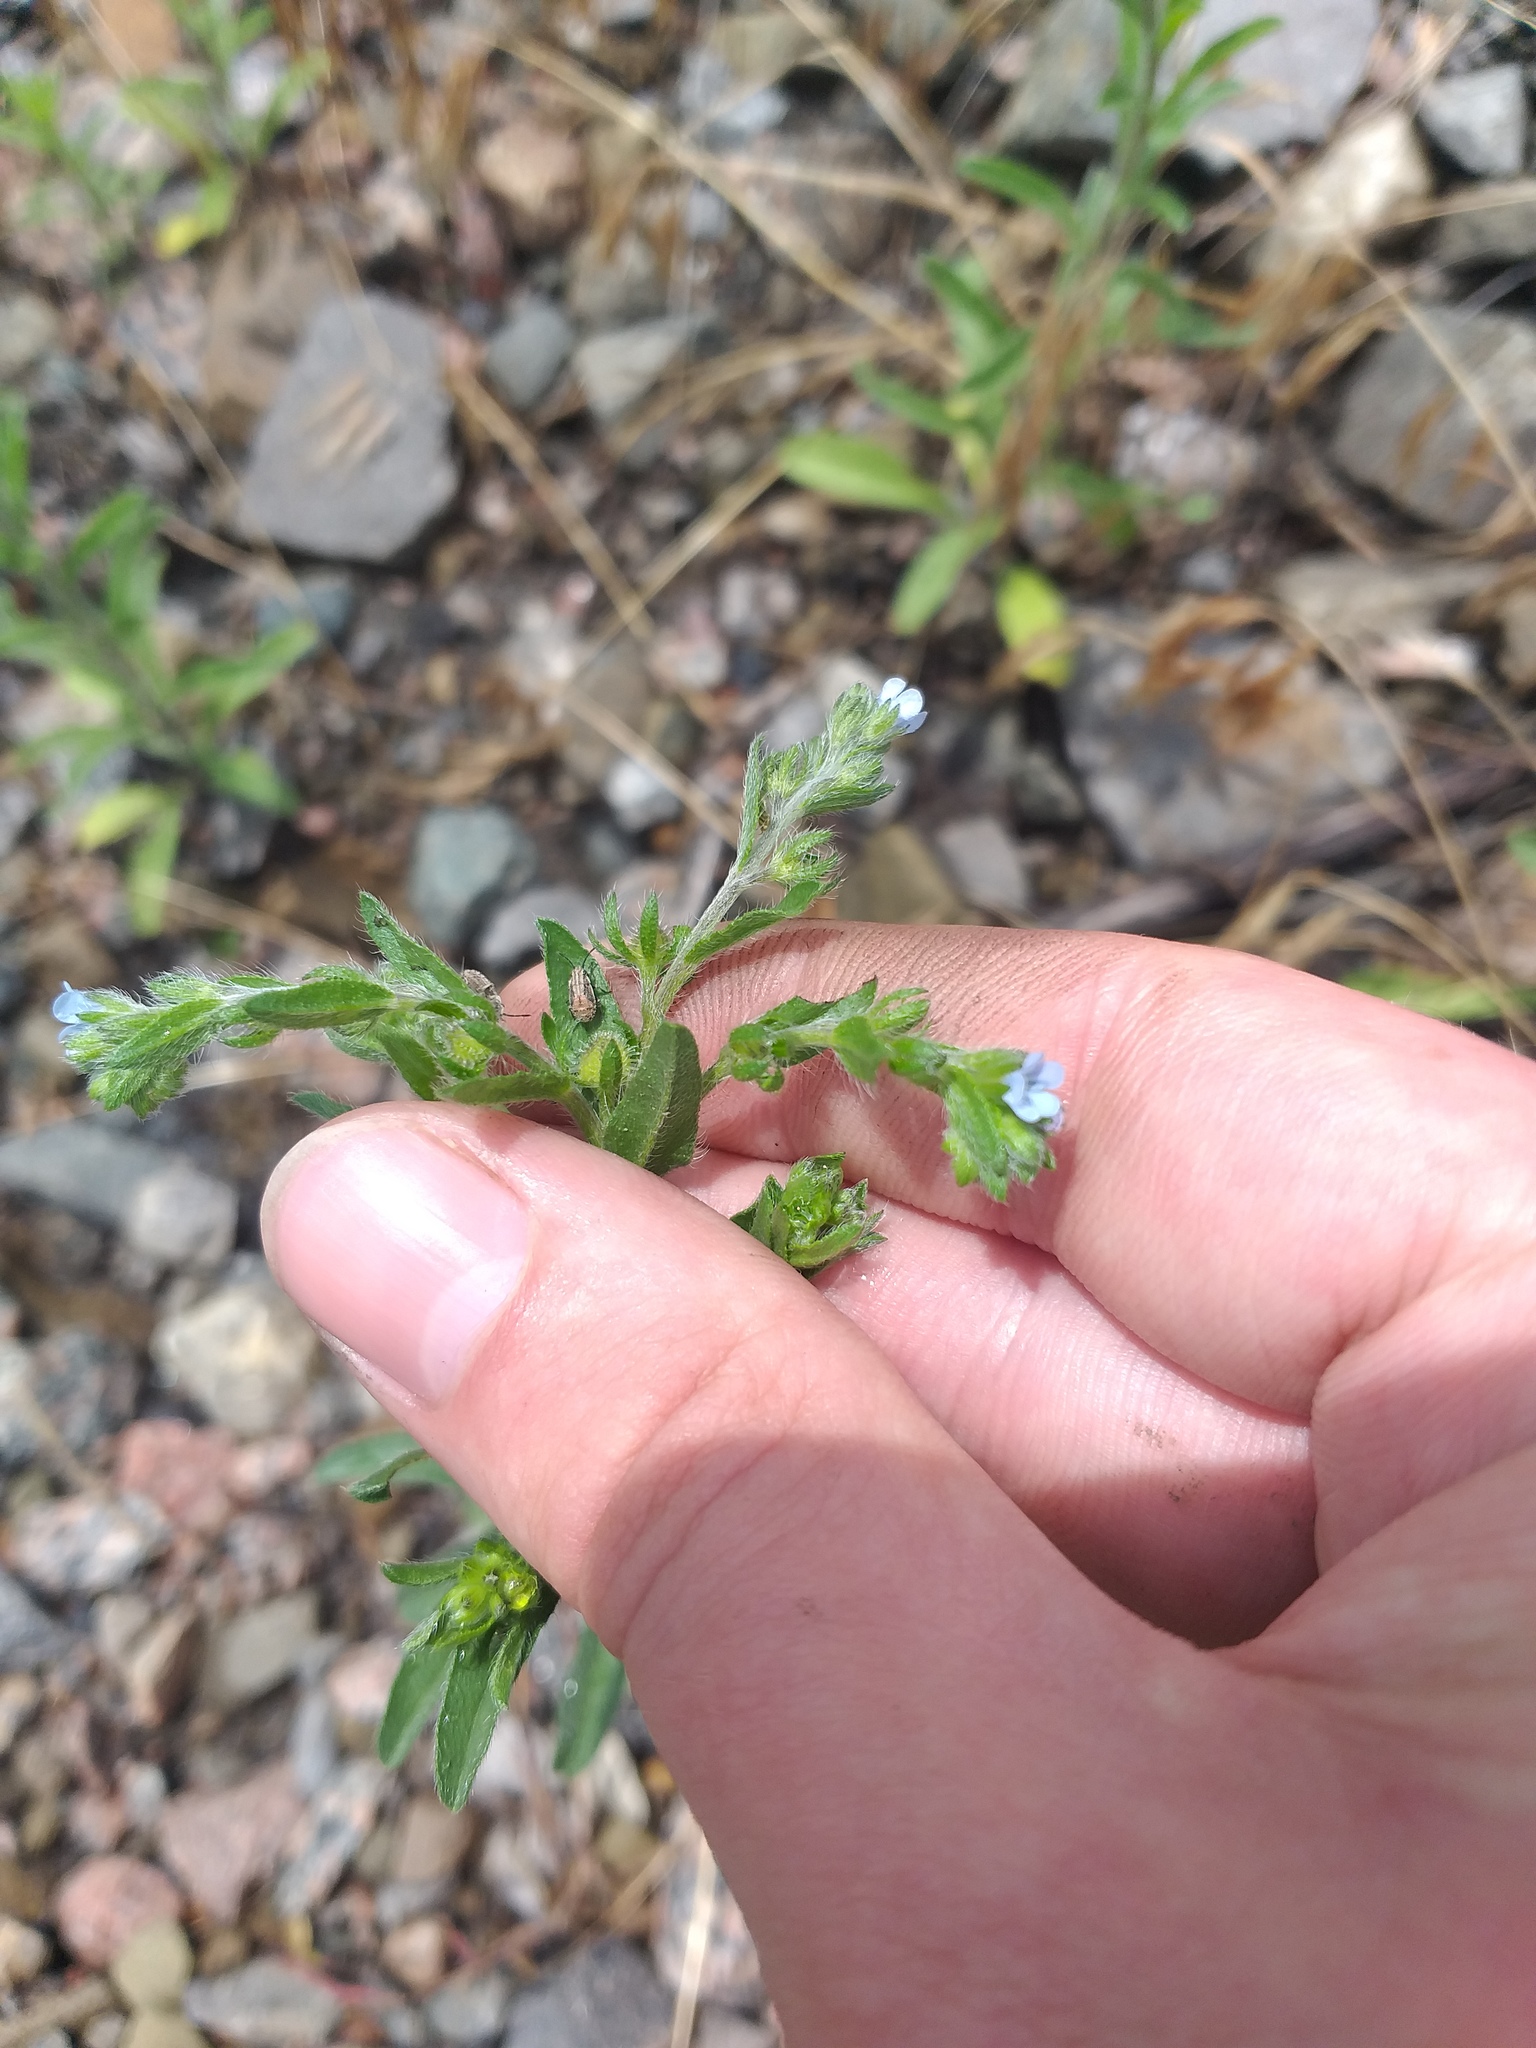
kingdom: Plantae
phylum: Tracheophyta
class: Magnoliopsida
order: Boraginales
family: Boraginaceae
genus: Lappula
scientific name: Lappula squarrosa
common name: European stickseed
